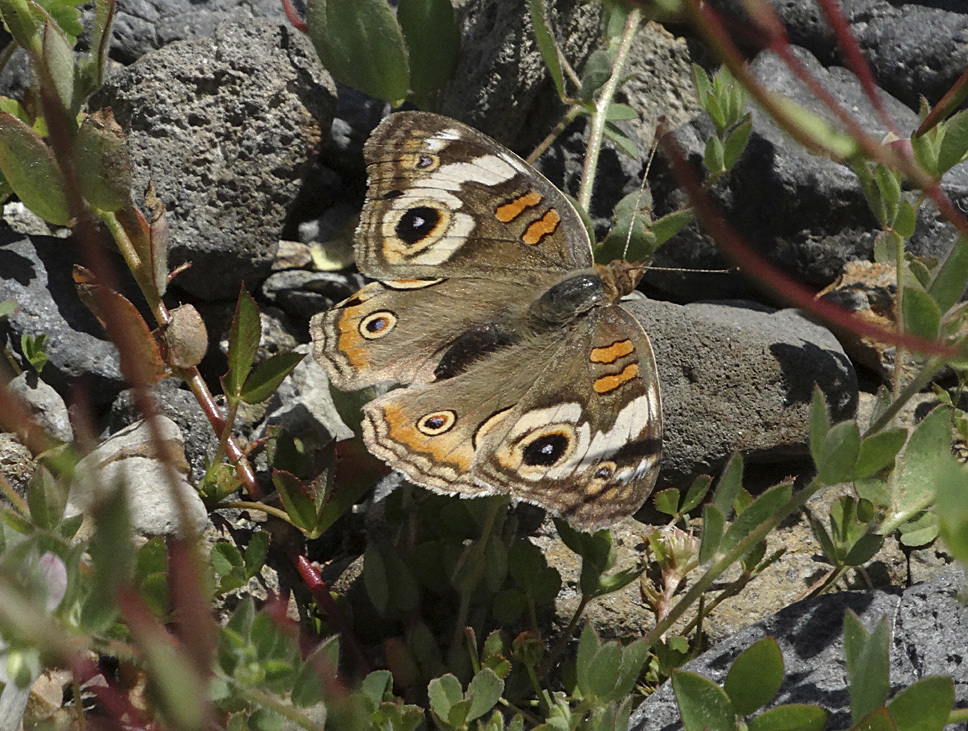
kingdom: Animalia
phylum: Arthropoda
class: Insecta
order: Lepidoptera
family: Nymphalidae
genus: Junonia
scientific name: Junonia grisea
